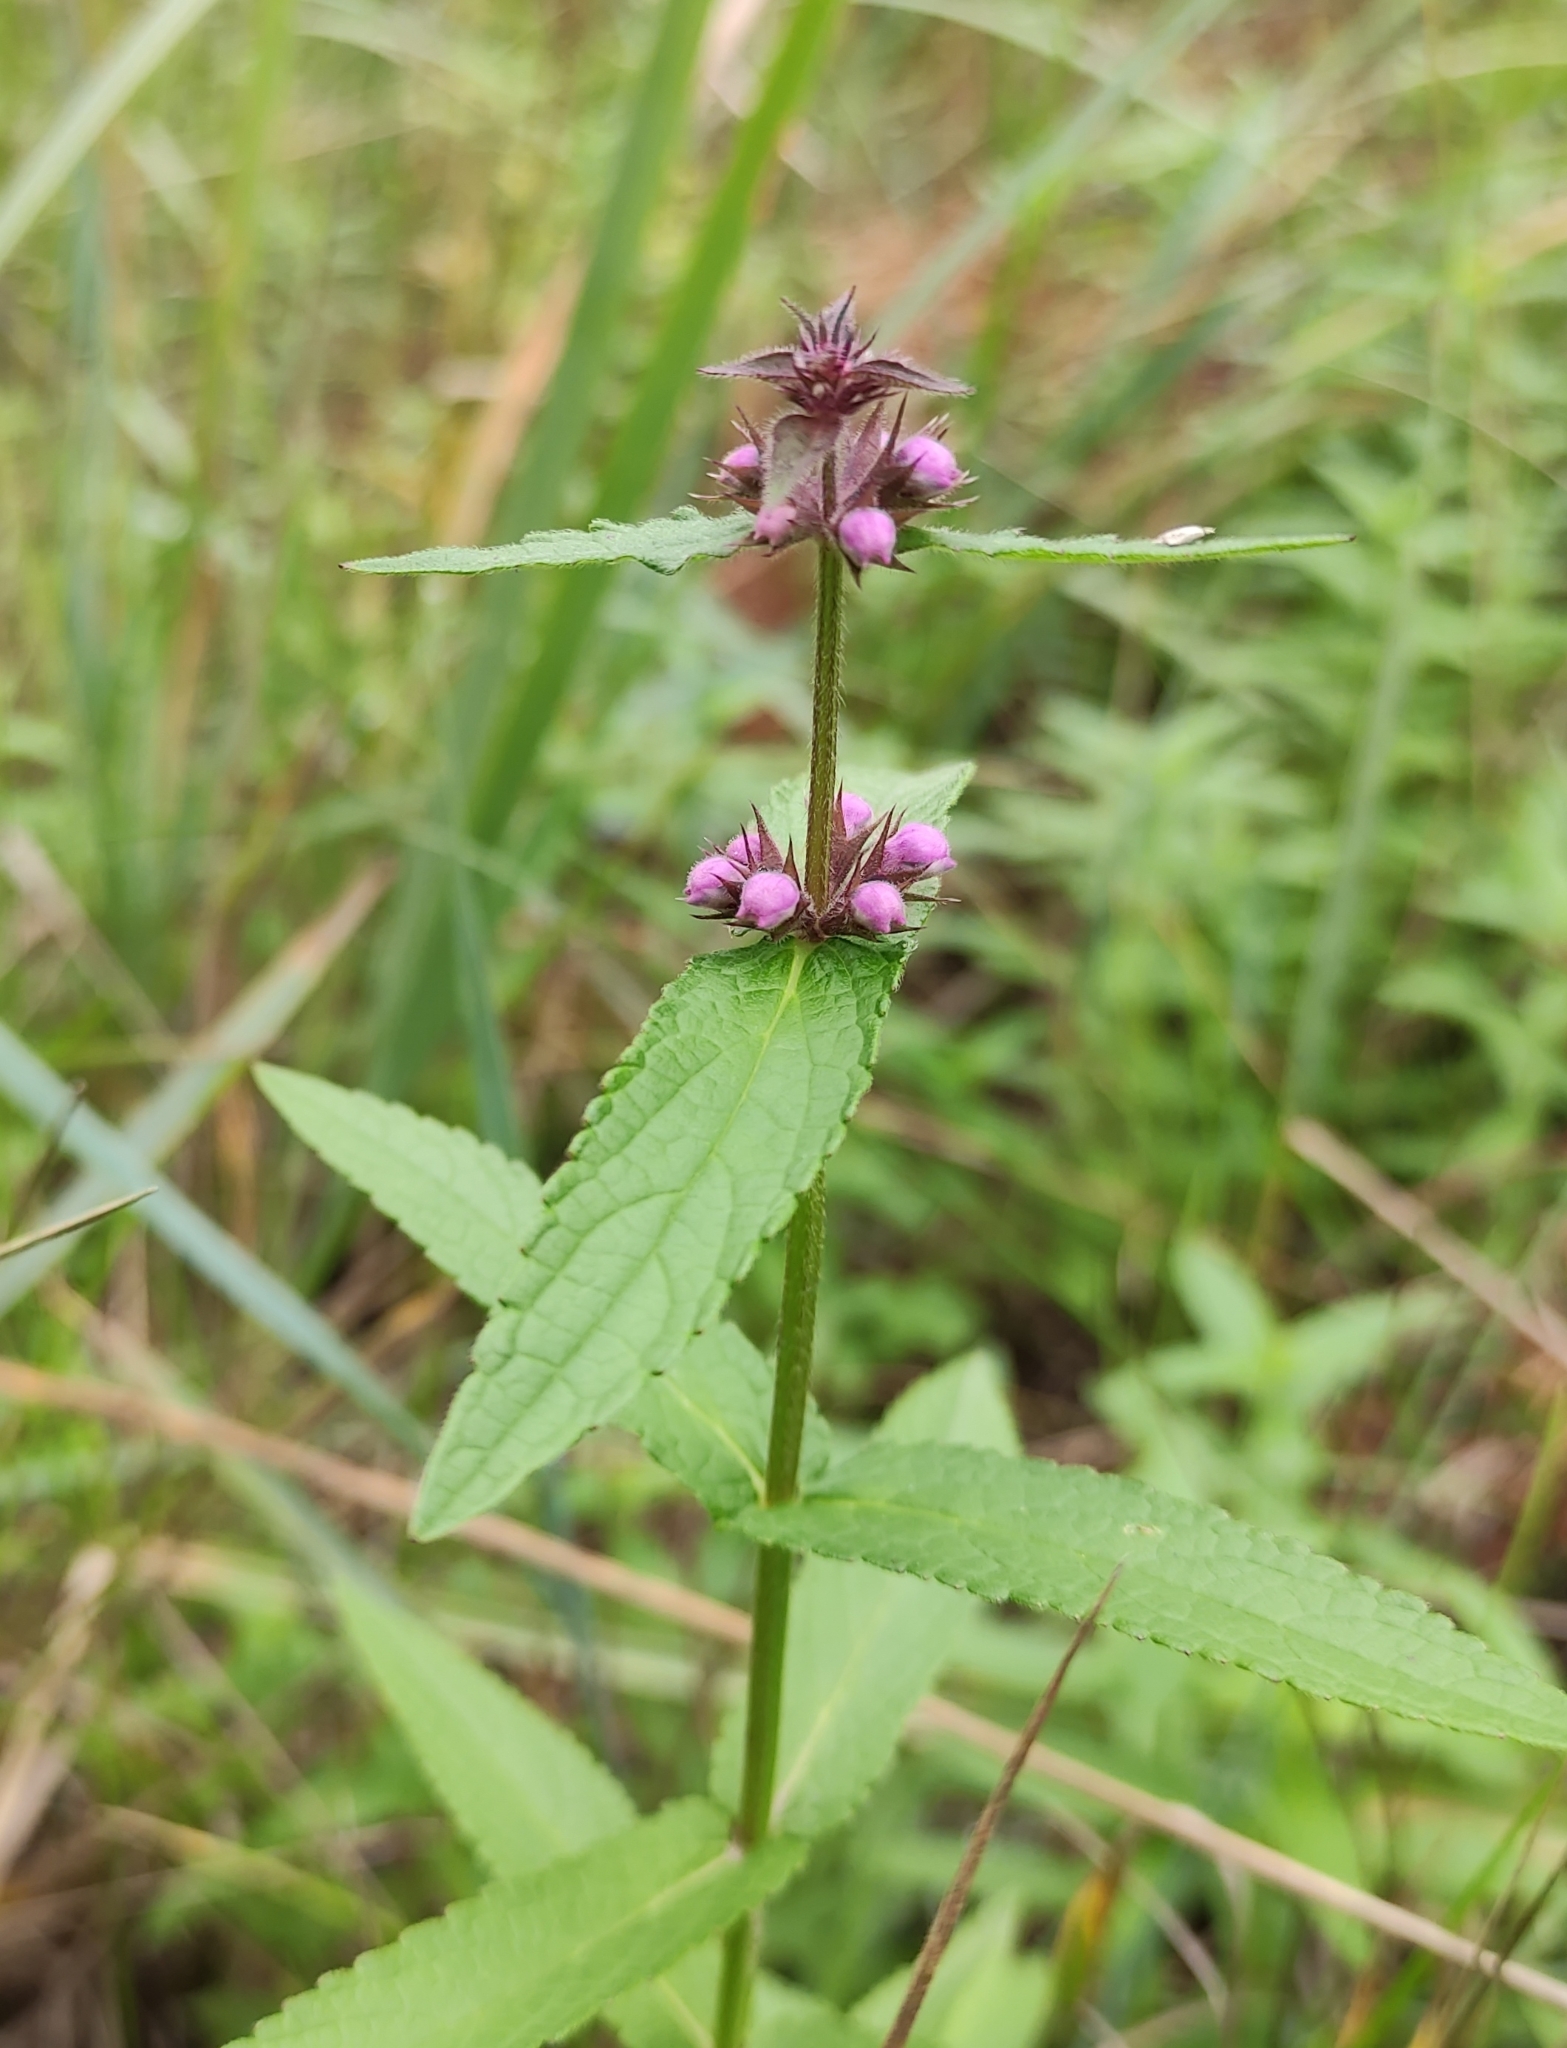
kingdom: Plantae
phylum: Tracheophyta
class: Magnoliopsida
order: Lamiales
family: Lamiaceae
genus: Stachys
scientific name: Stachys palustris
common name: Marsh woundwort
